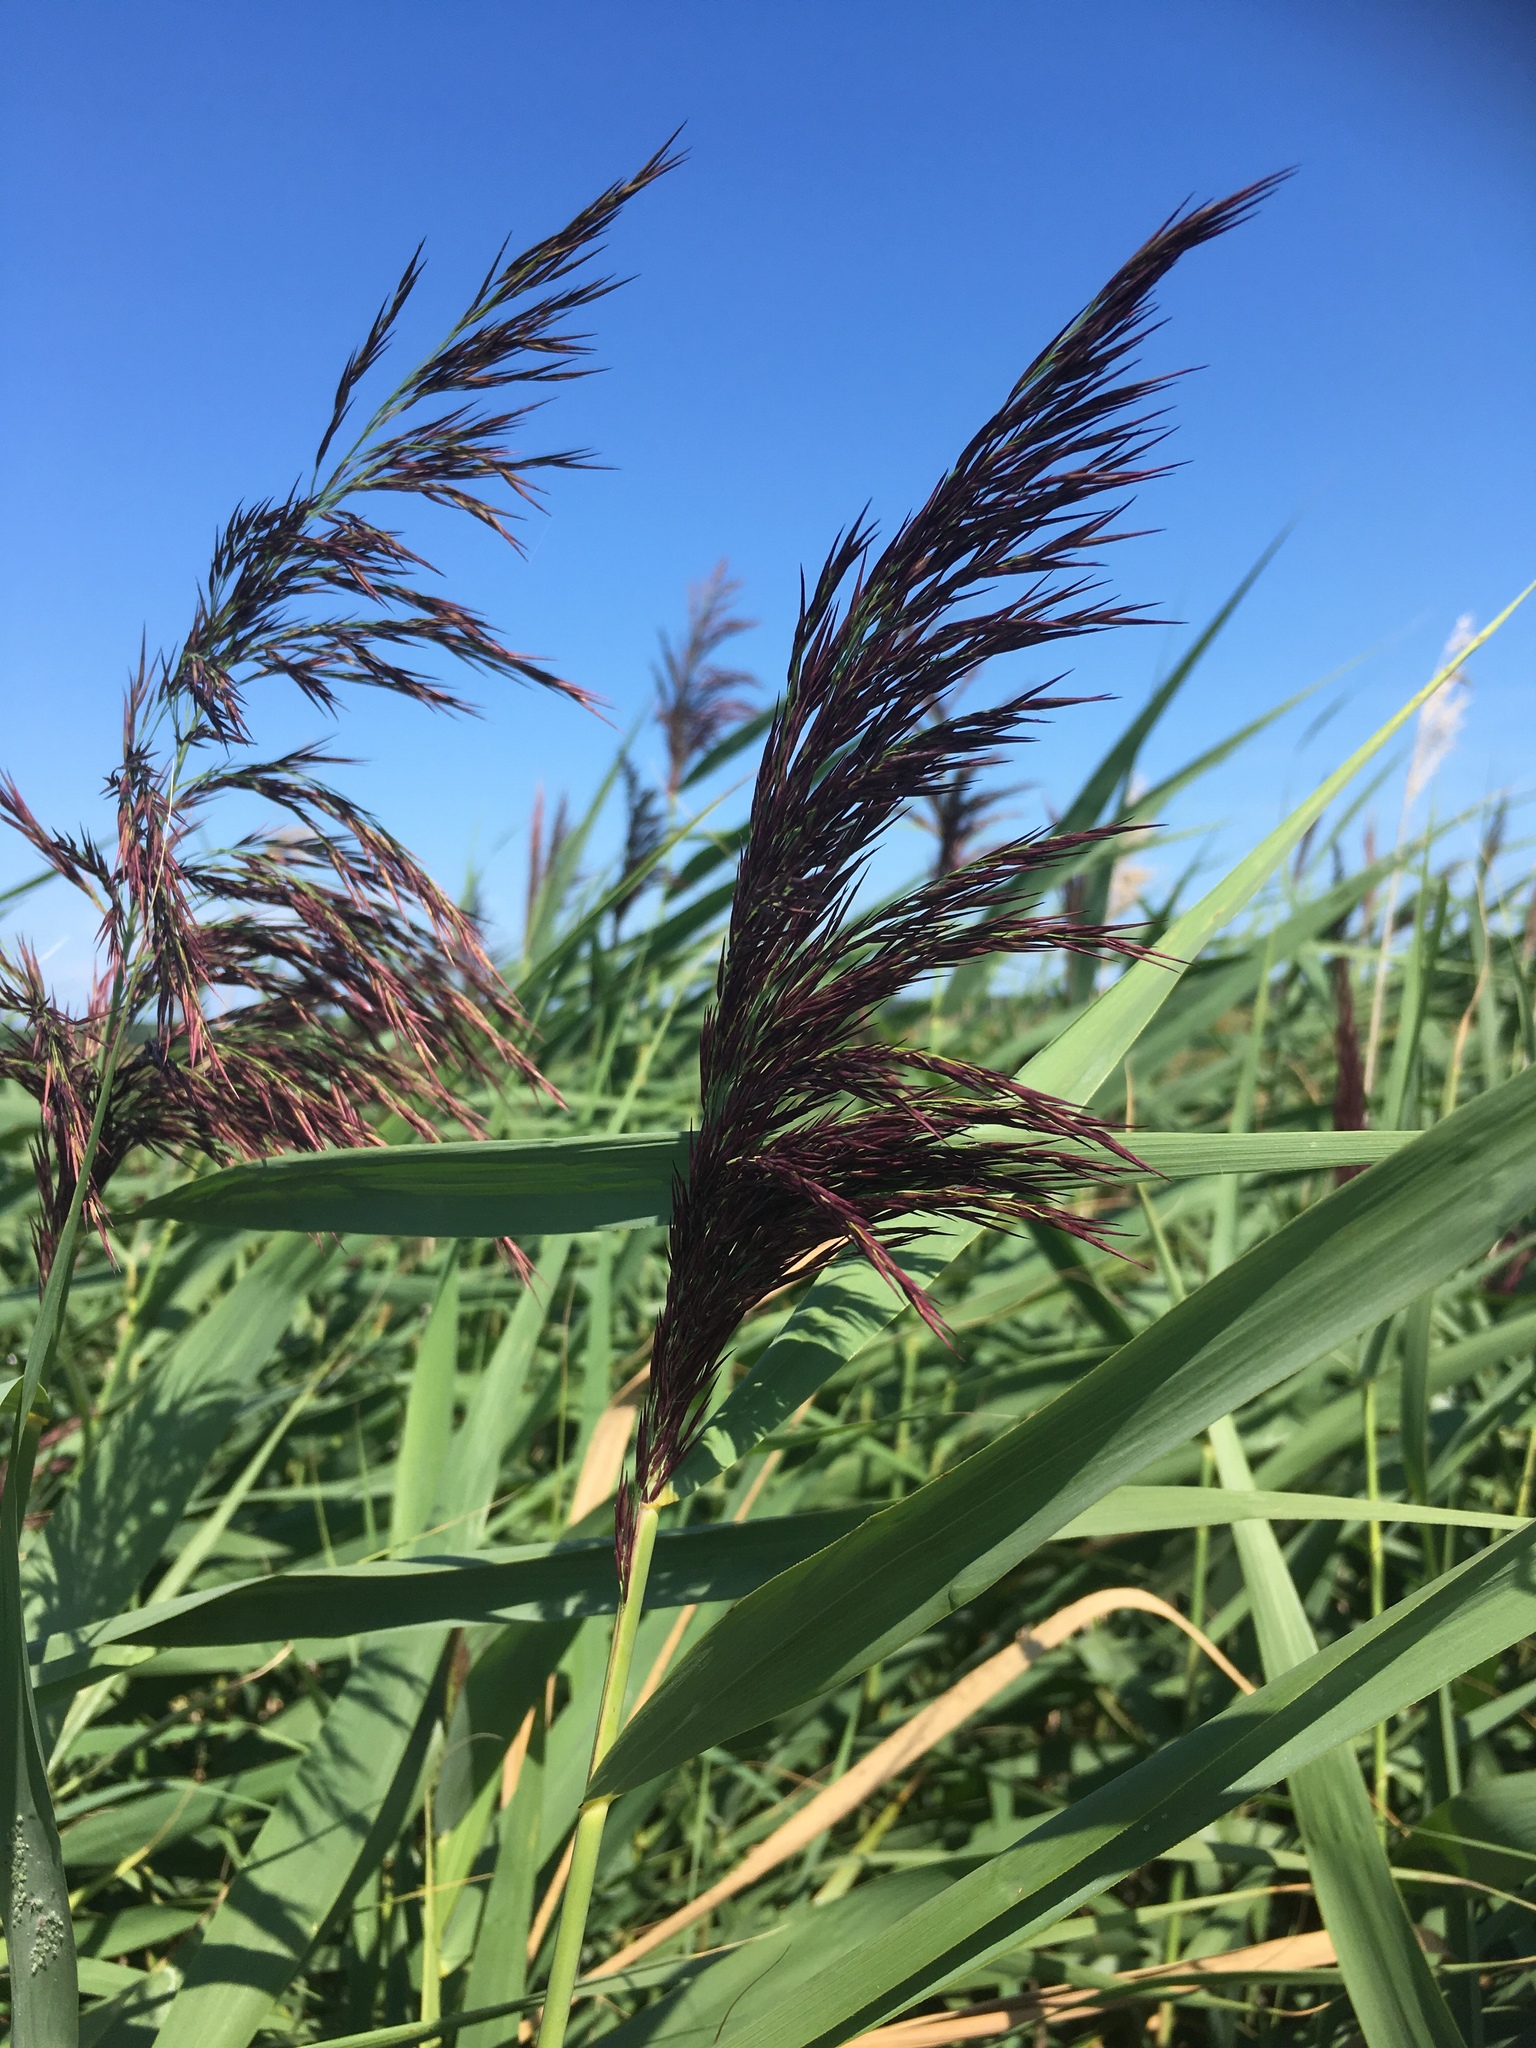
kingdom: Plantae
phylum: Tracheophyta
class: Liliopsida
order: Poales
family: Poaceae
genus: Phragmites
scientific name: Phragmites australis
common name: Common reed
